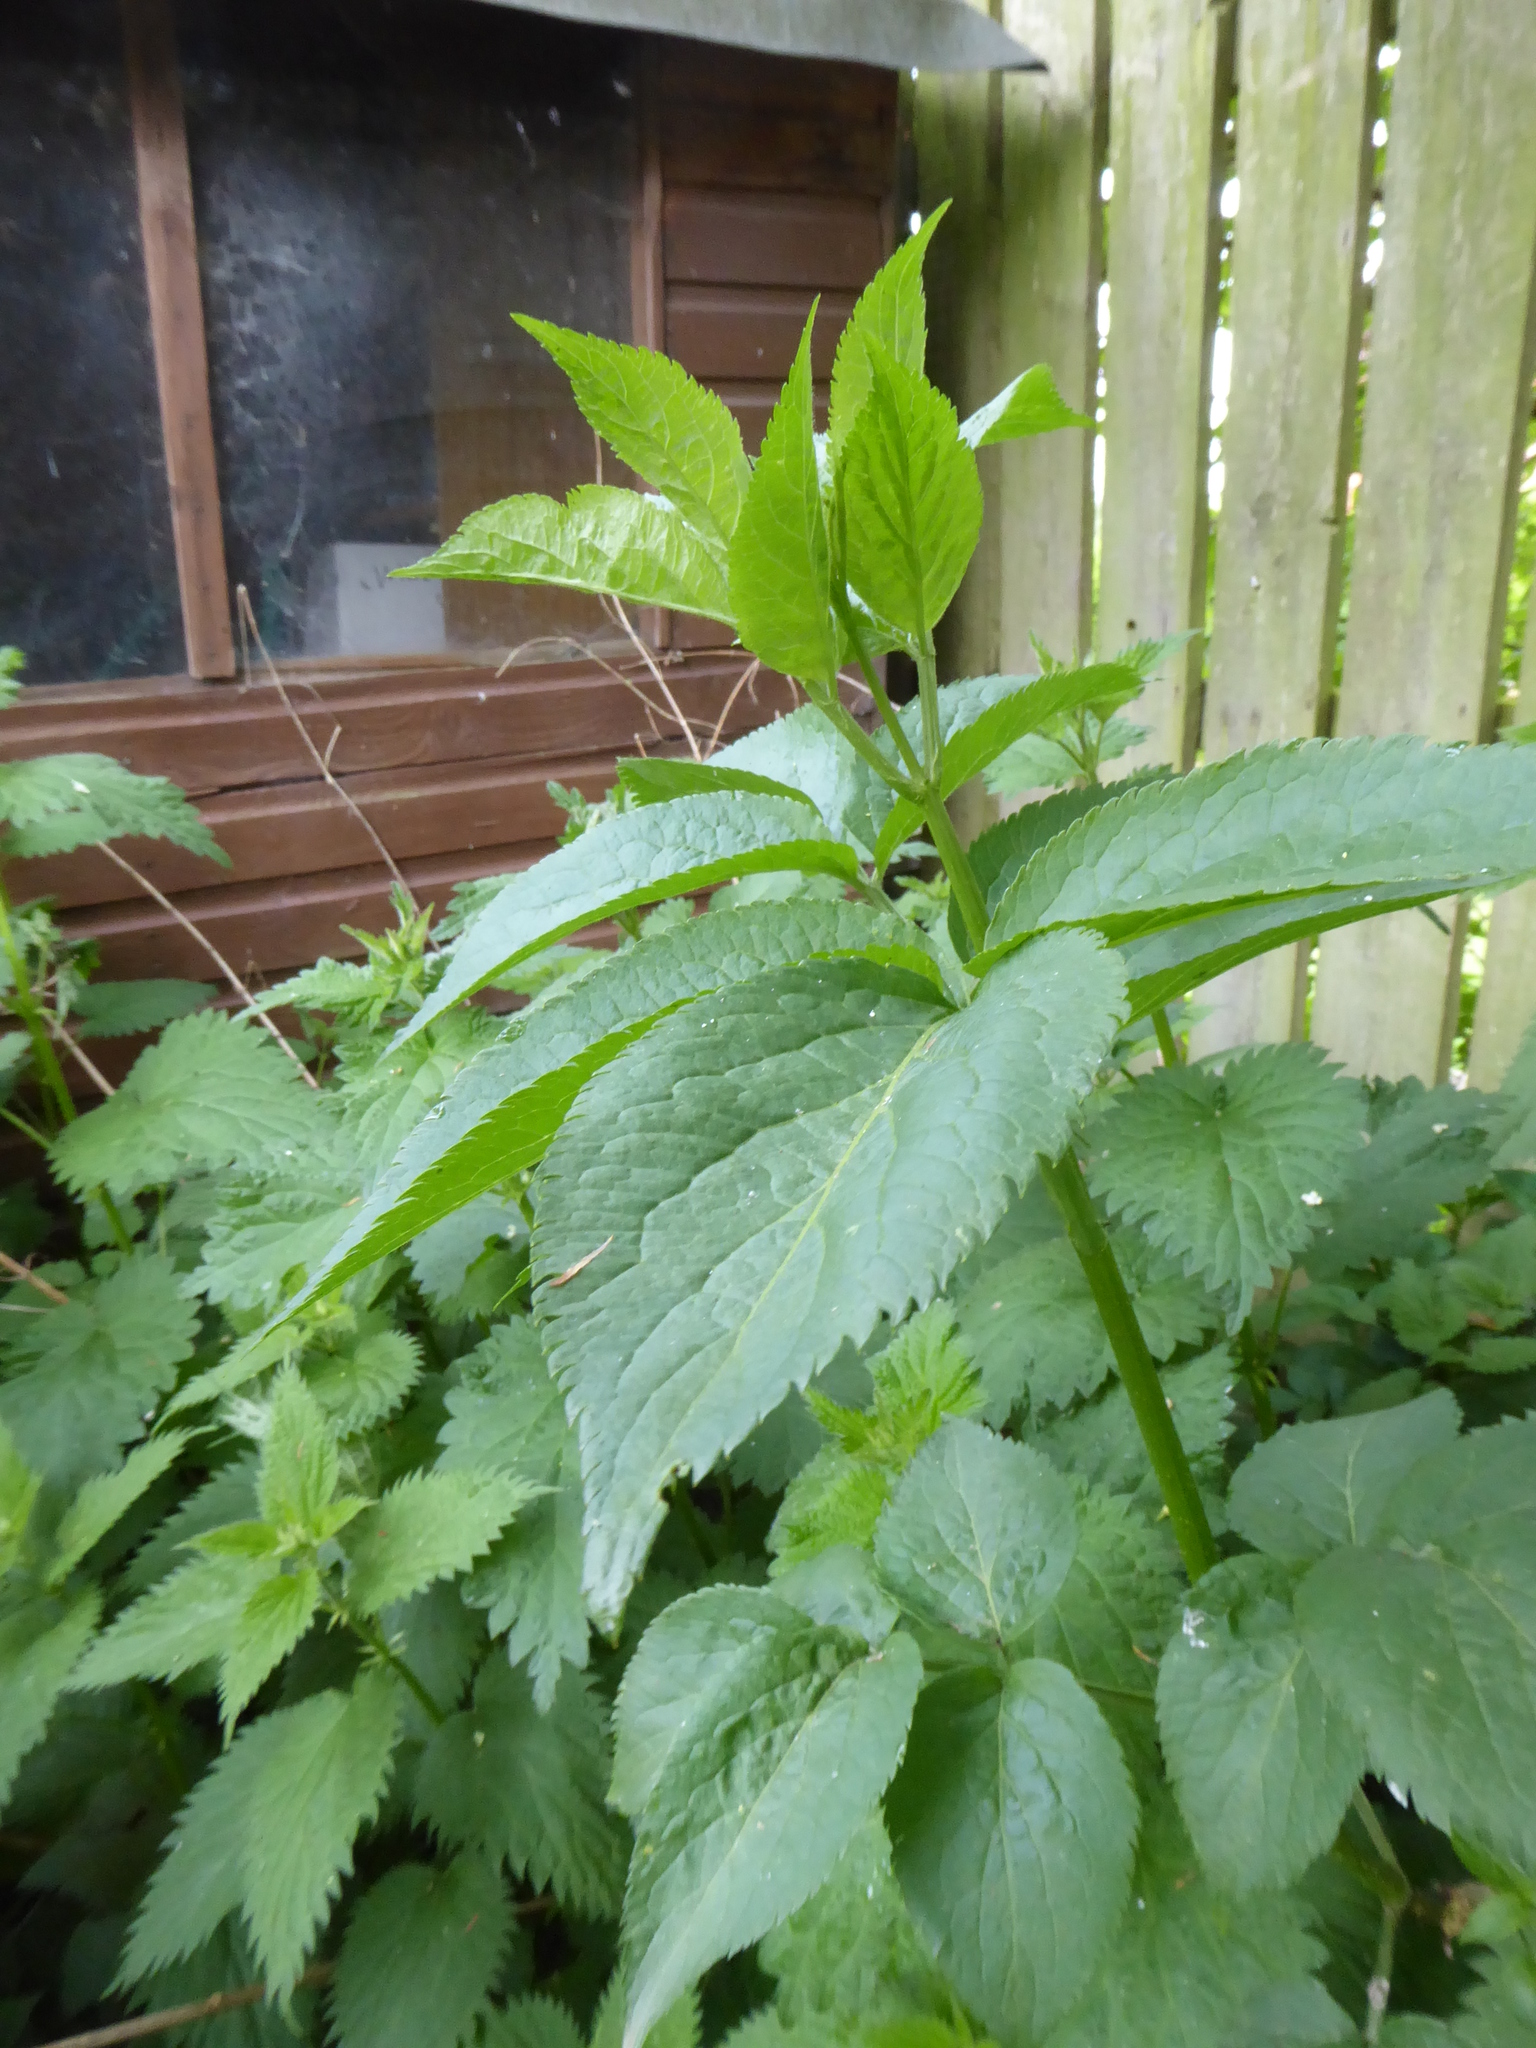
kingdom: Plantae
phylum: Tracheophyta
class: Magnoliopsida
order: Dipsacales
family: Viburnaceae
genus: Sambucus
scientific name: Sambucus nigra
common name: Elder
